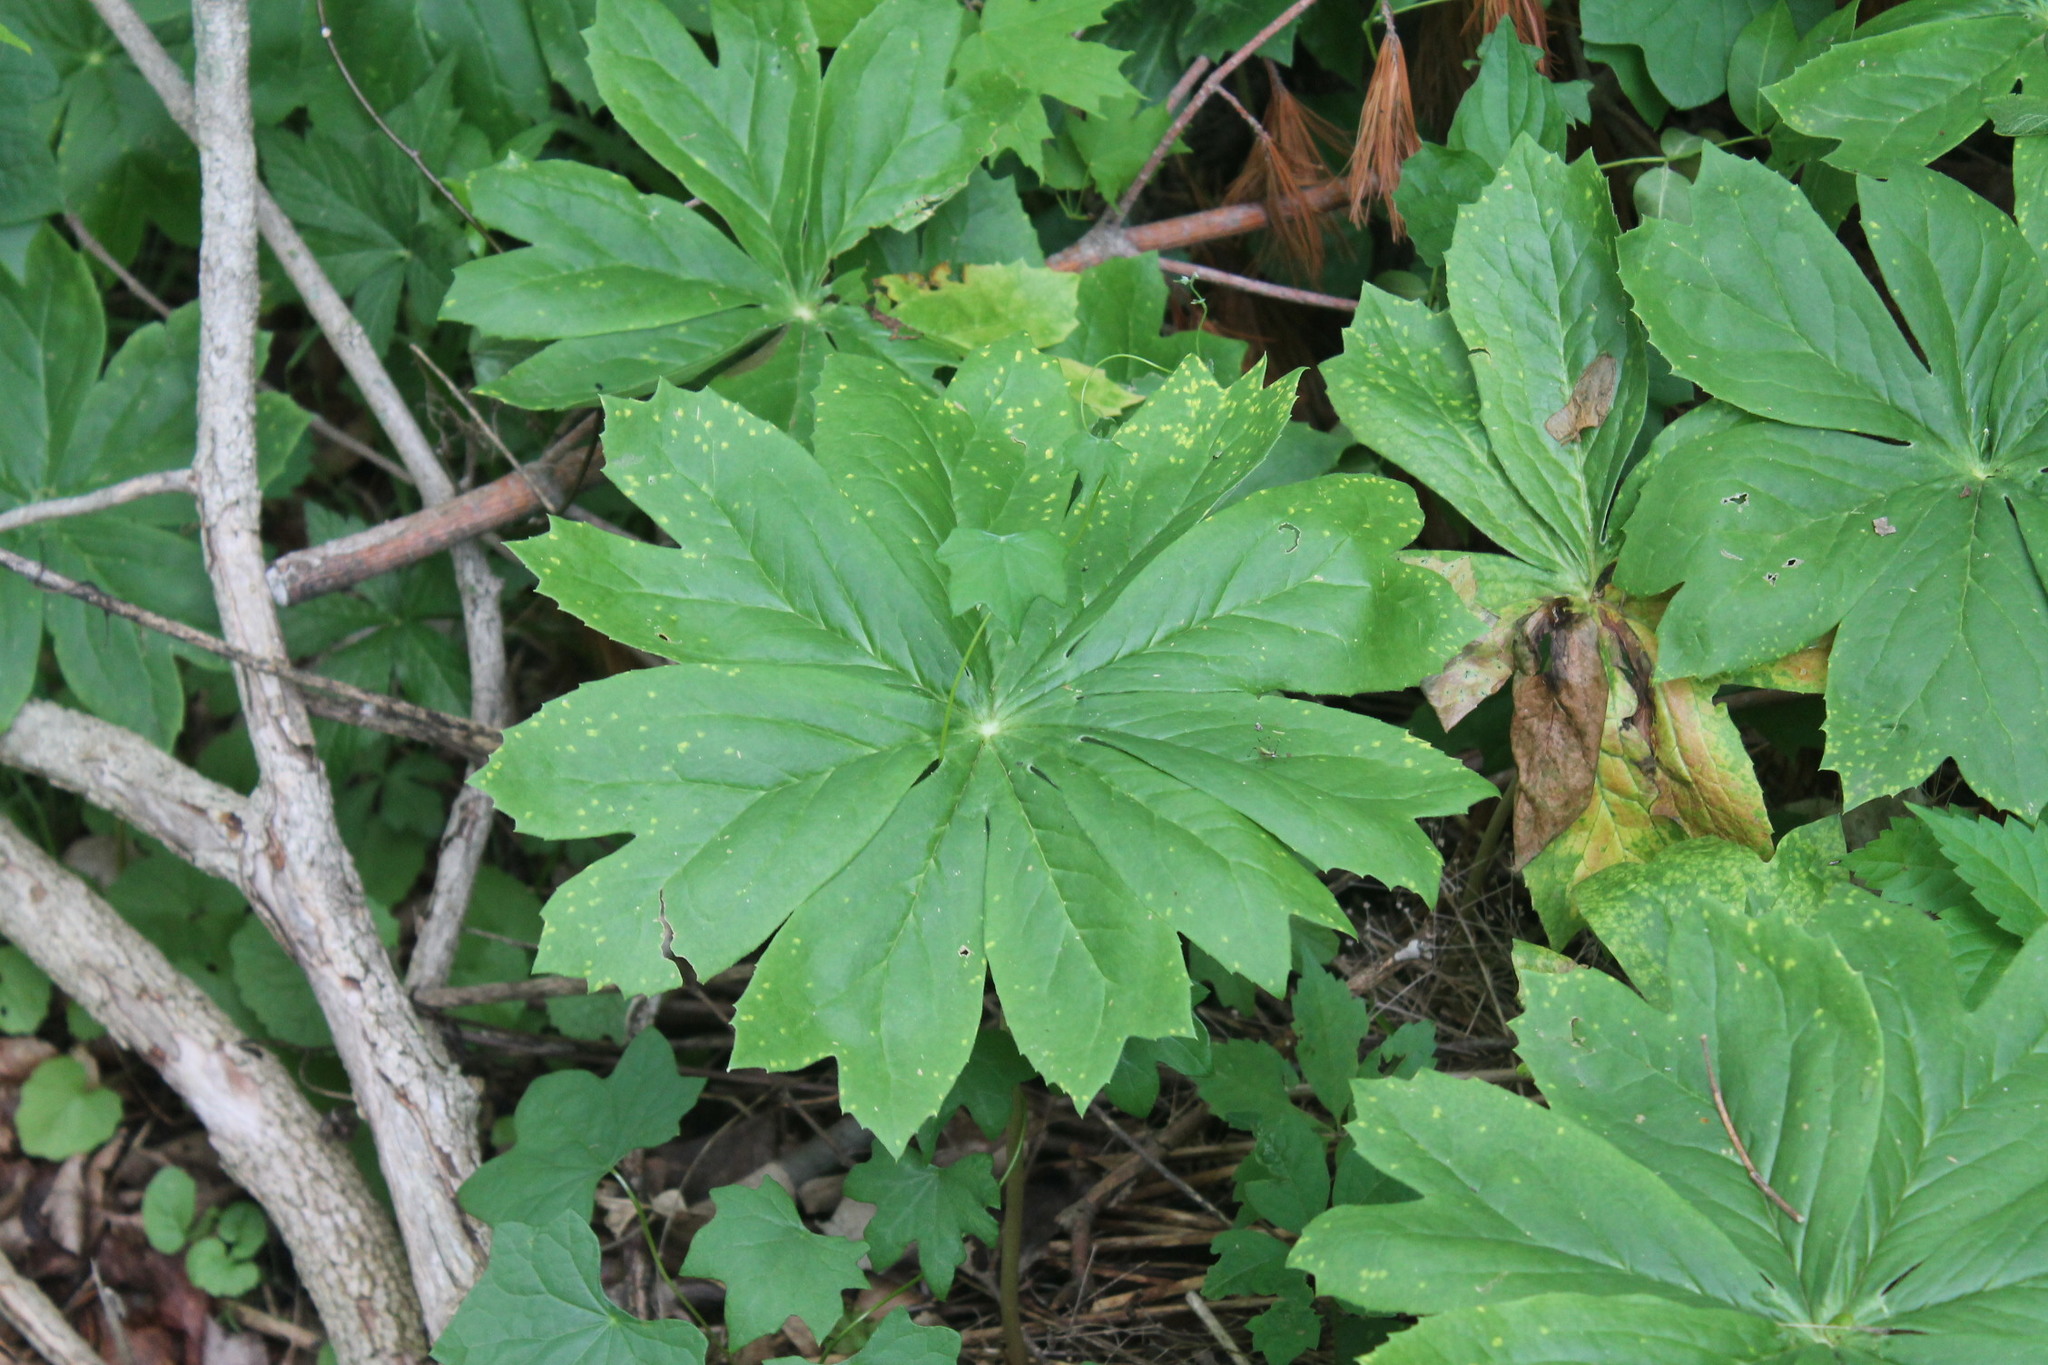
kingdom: Plantae
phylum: Tracheophyta
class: Magnoliopsida
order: Ranunculales
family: Berberidaceae
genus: Podophyllum
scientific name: Podophyllum peltatum
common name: Wild mandrake
